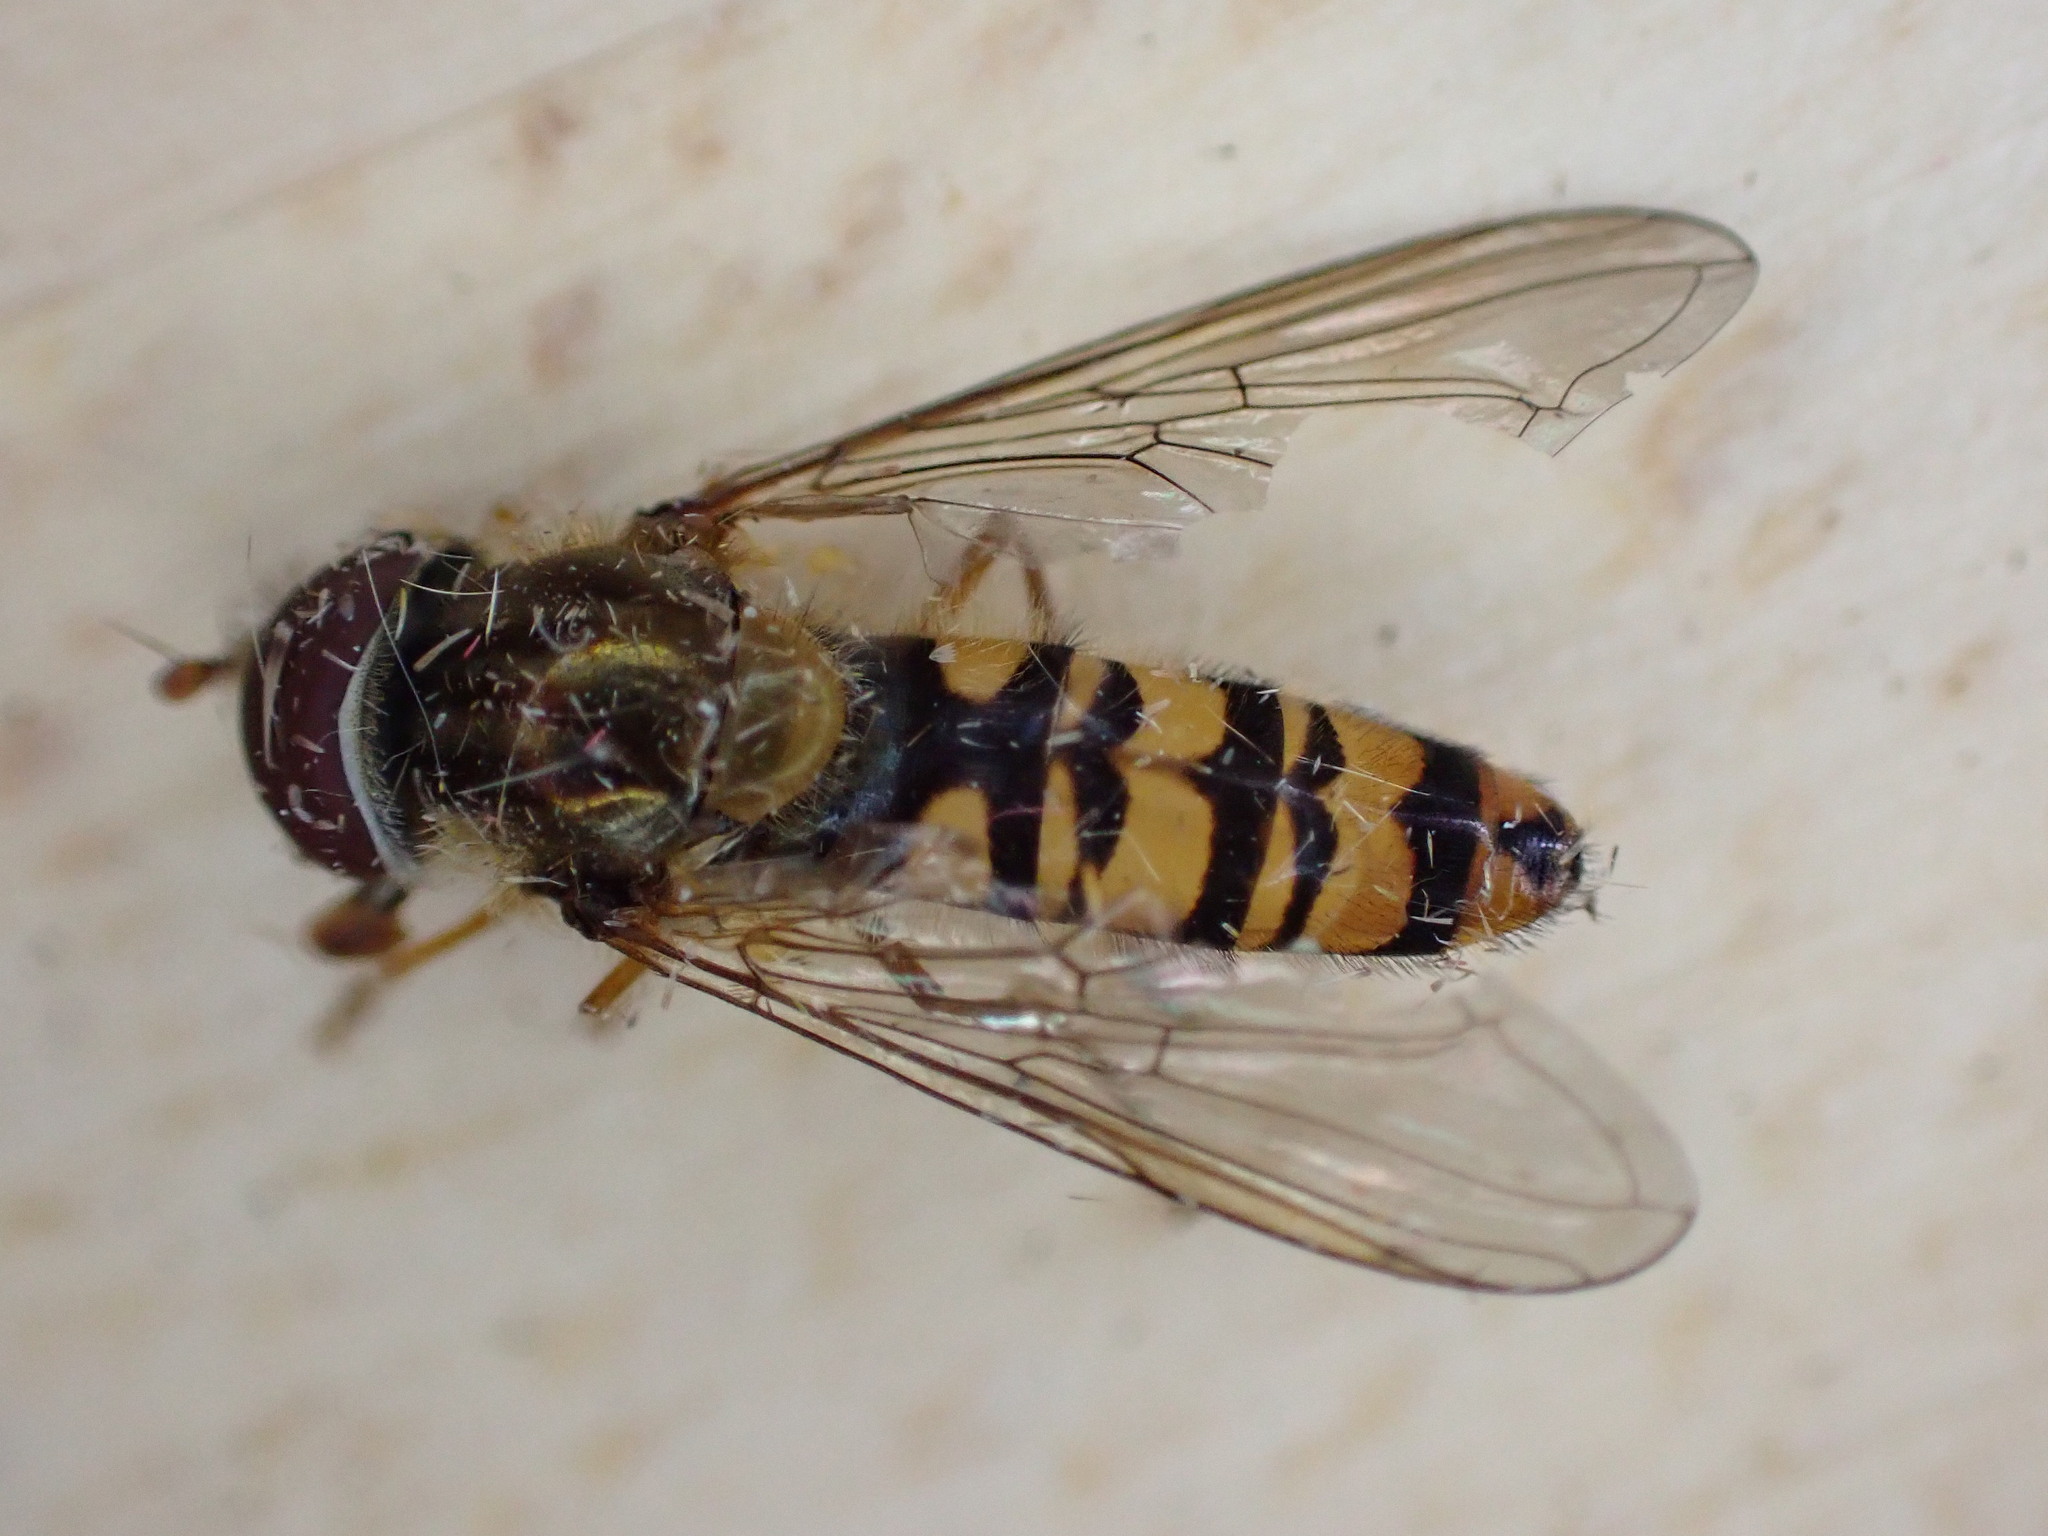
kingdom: Animalia
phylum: Arthropoda
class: Insecta
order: Diptera
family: Syrphidae
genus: Episyrphus
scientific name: Episyrphus balteatus
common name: Marmalade hoverfly
